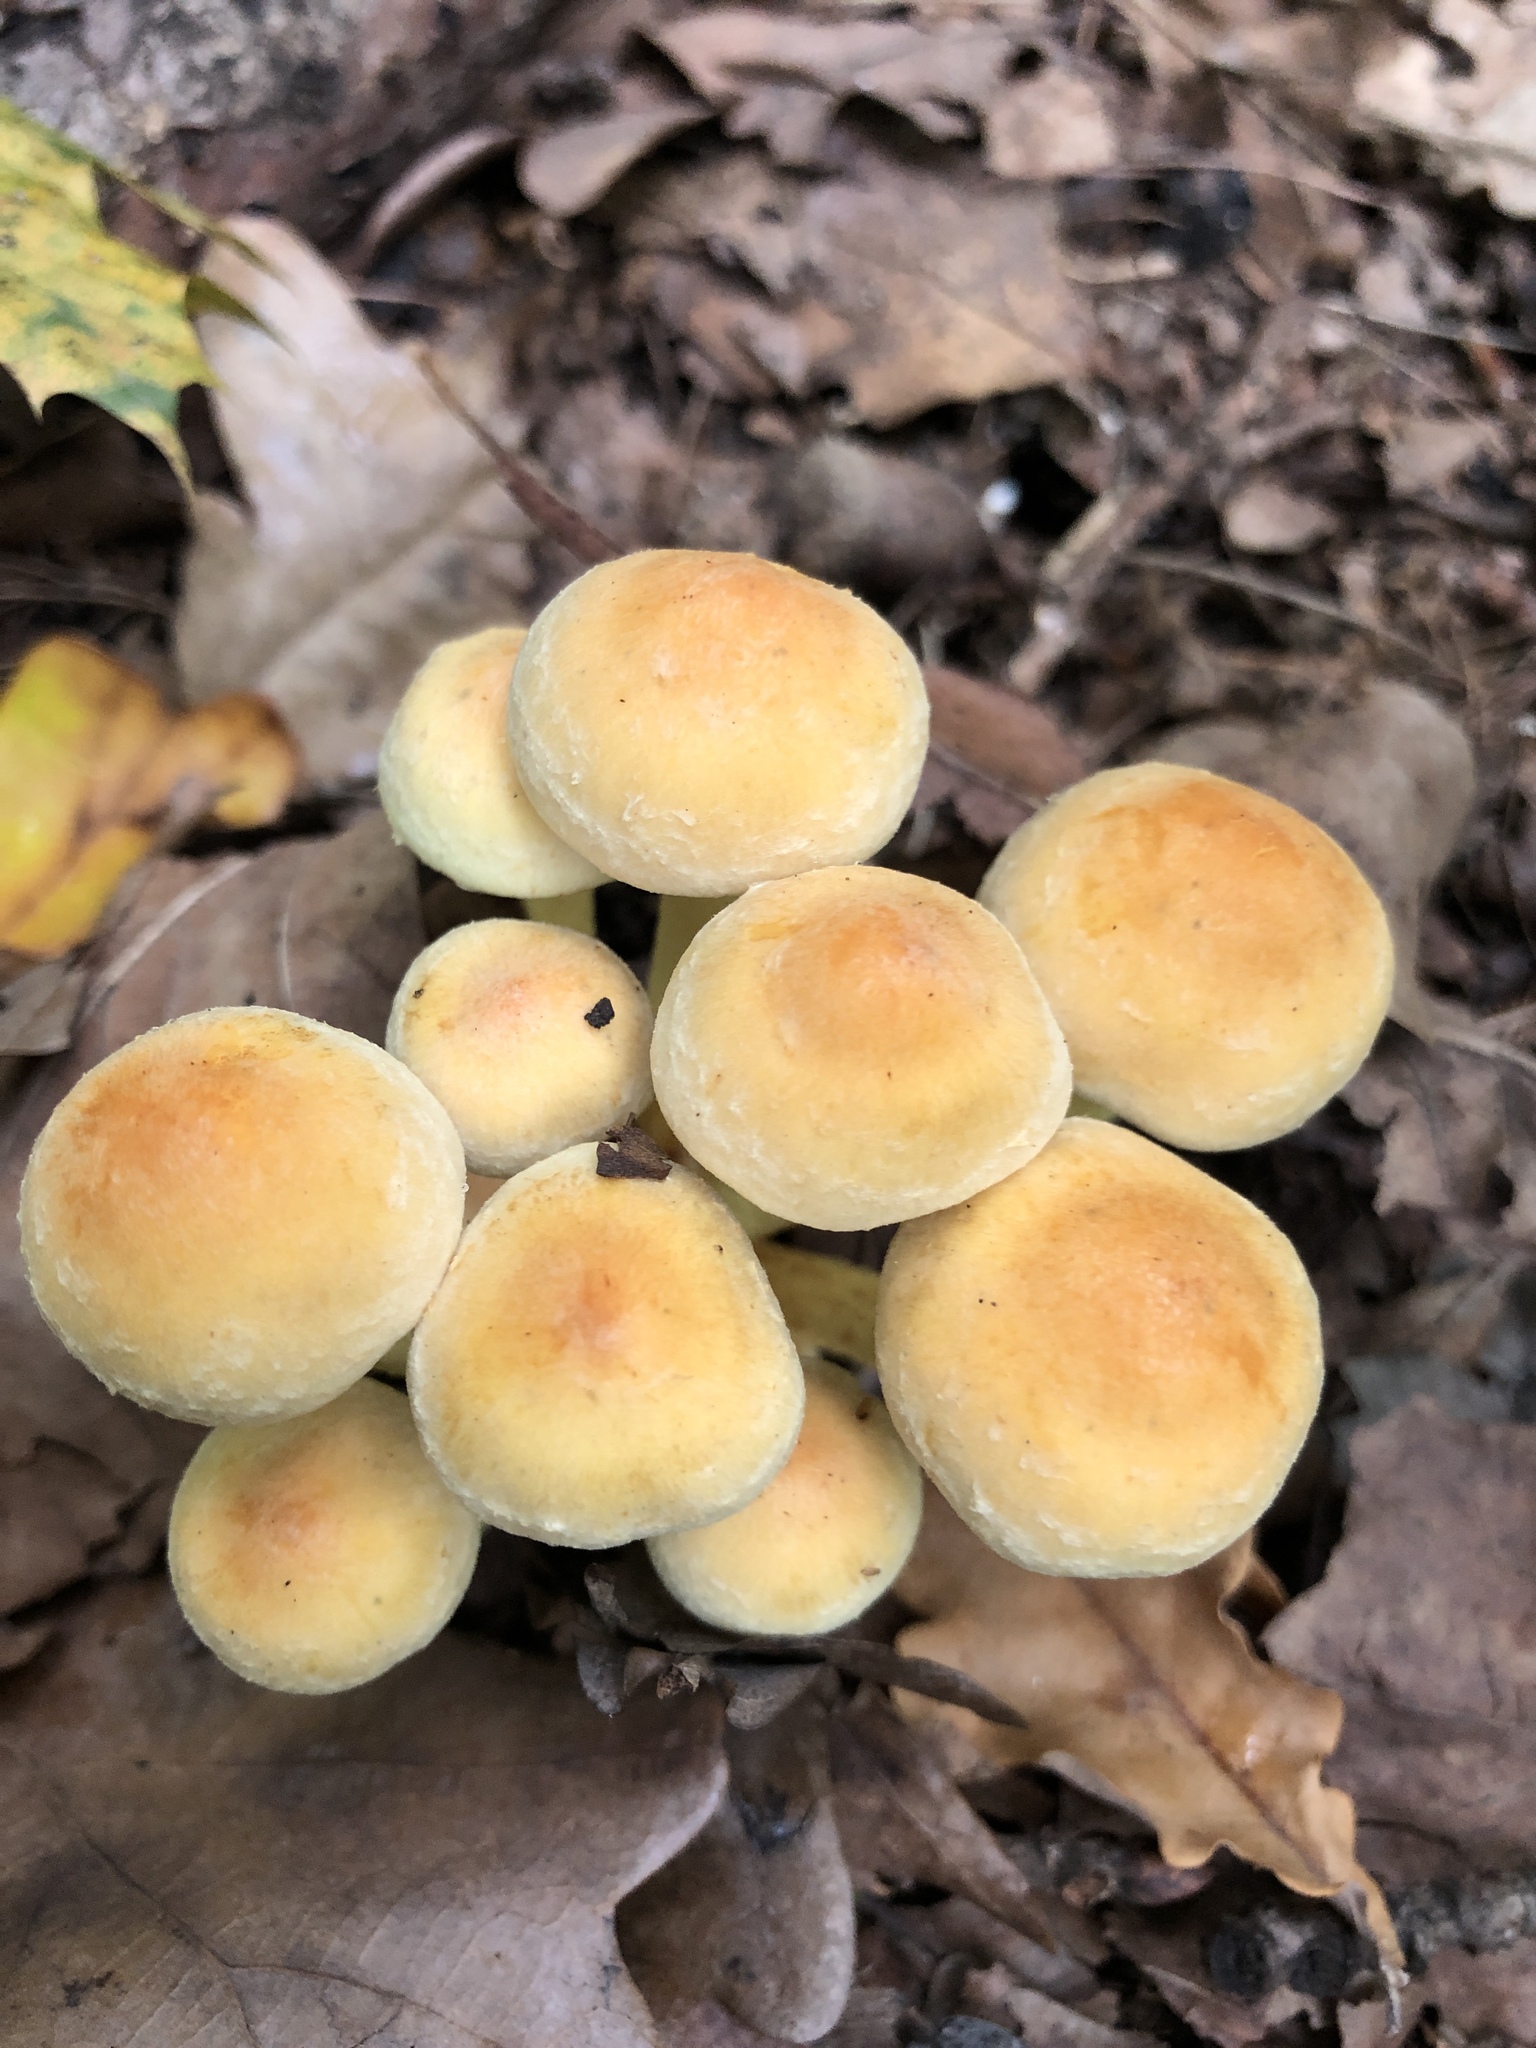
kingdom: Fungi
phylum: Basidiomycota
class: Agaricomycetes
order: Agaricales
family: Strophariaceae
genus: Hypholoma
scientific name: Hypholoma fasciculare
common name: Sulphur tuft
